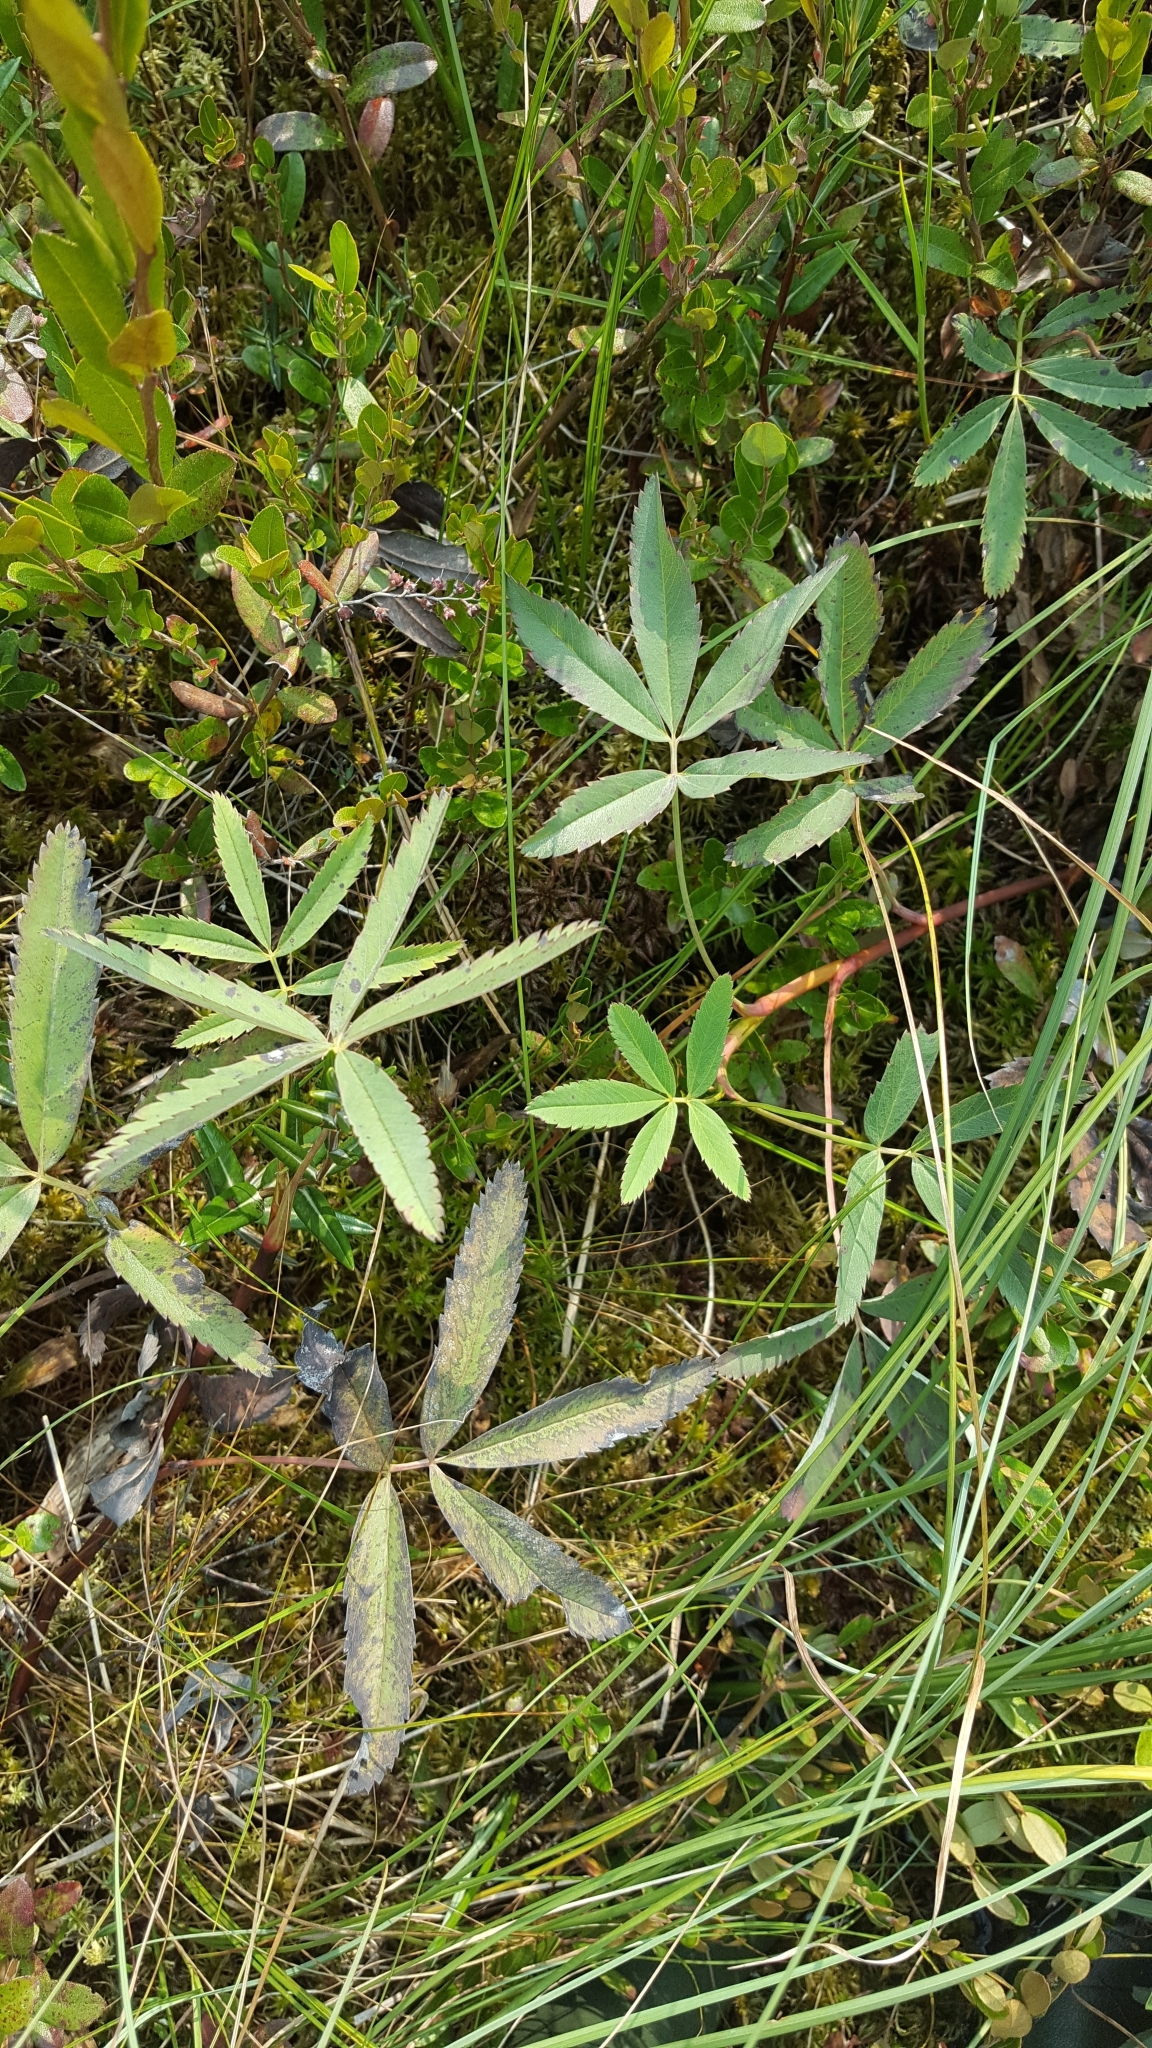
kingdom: Plantae
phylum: Tracheophyta
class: Magnoliopsida
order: Rosales
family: Rosaceae
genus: Comarum
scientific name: Comarum palustre
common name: Marsh cinquefoil
